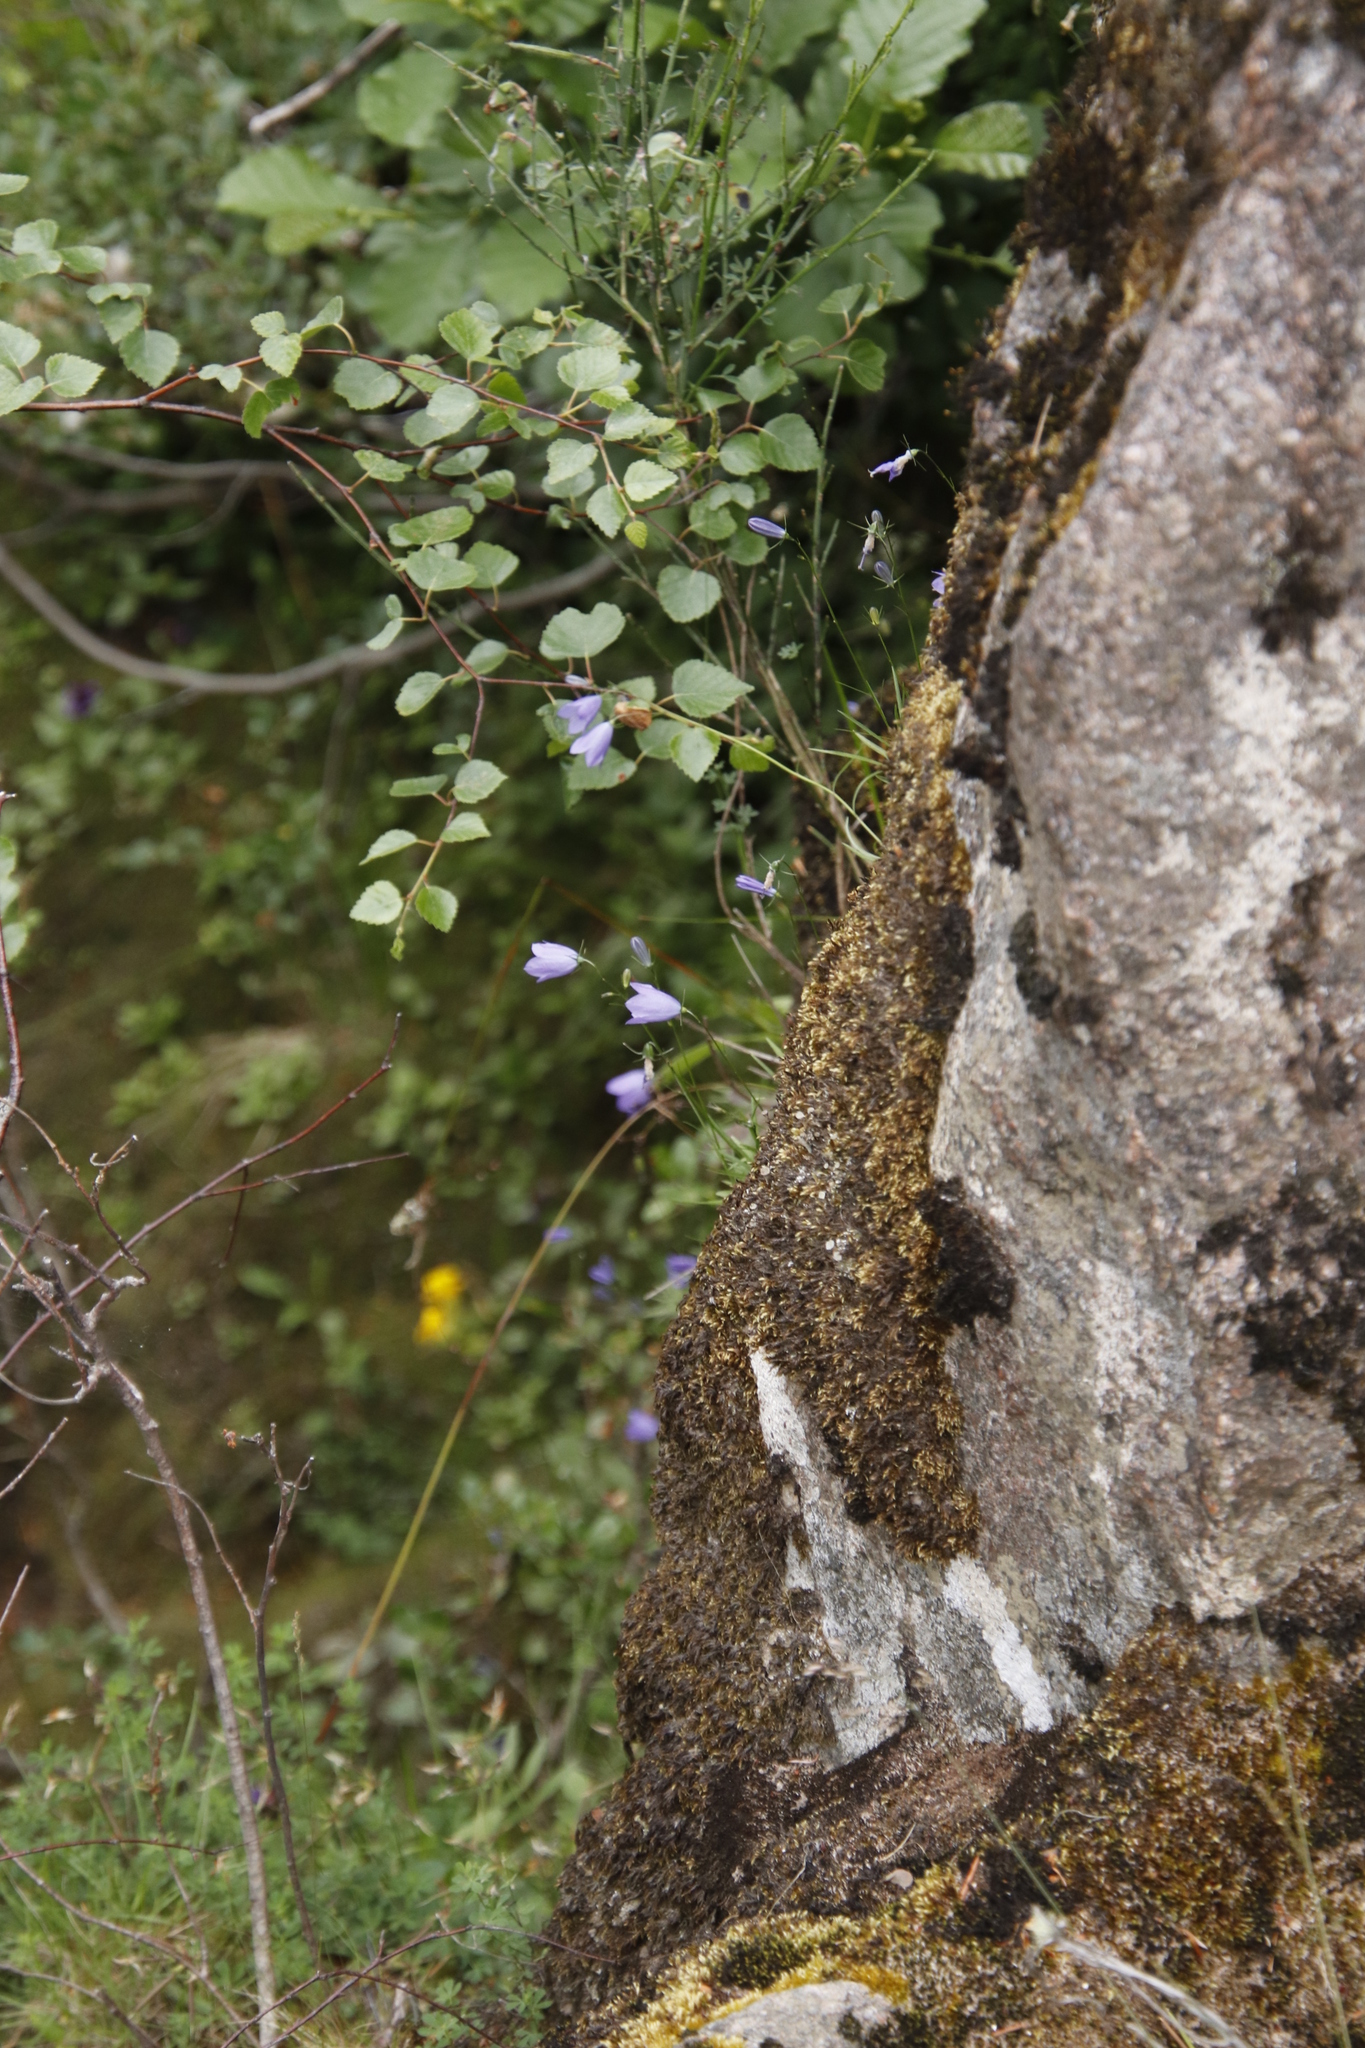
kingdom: Plantae
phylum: Tracheophyta
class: Magnoliopsida
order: Asterales
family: Campanulaceae
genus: Campanula
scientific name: Campanula rotundifolia
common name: Harebell
